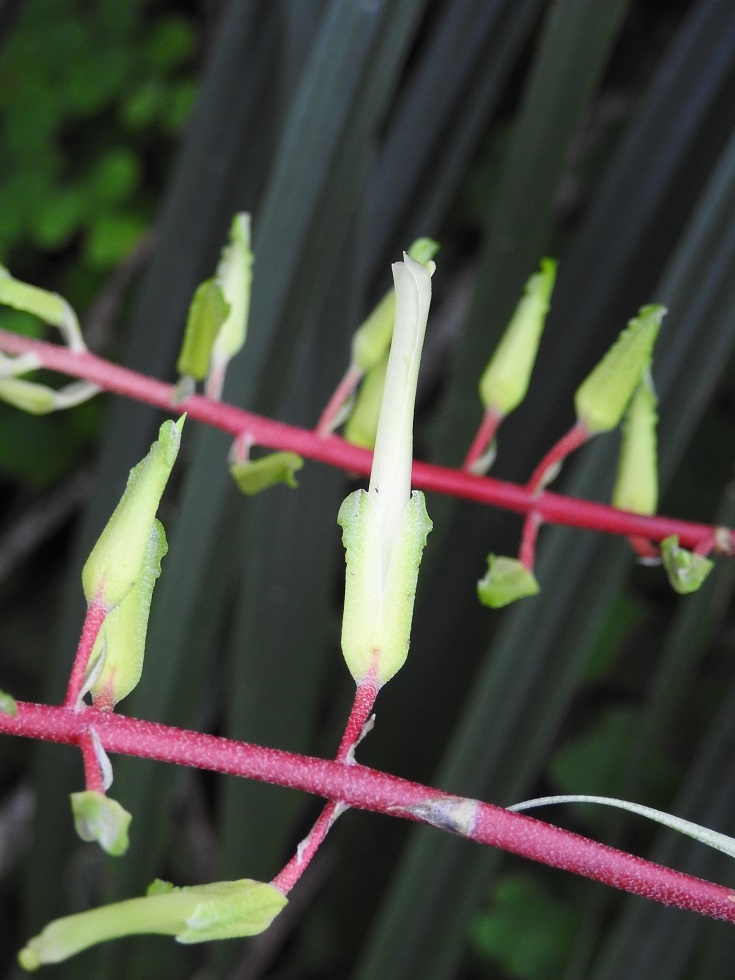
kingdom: Plantae
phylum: Tracheophyta
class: Liliopsida
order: Poales
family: Bromeliaceae
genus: Pitcairnia
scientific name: Pitcairnia breedlovei
